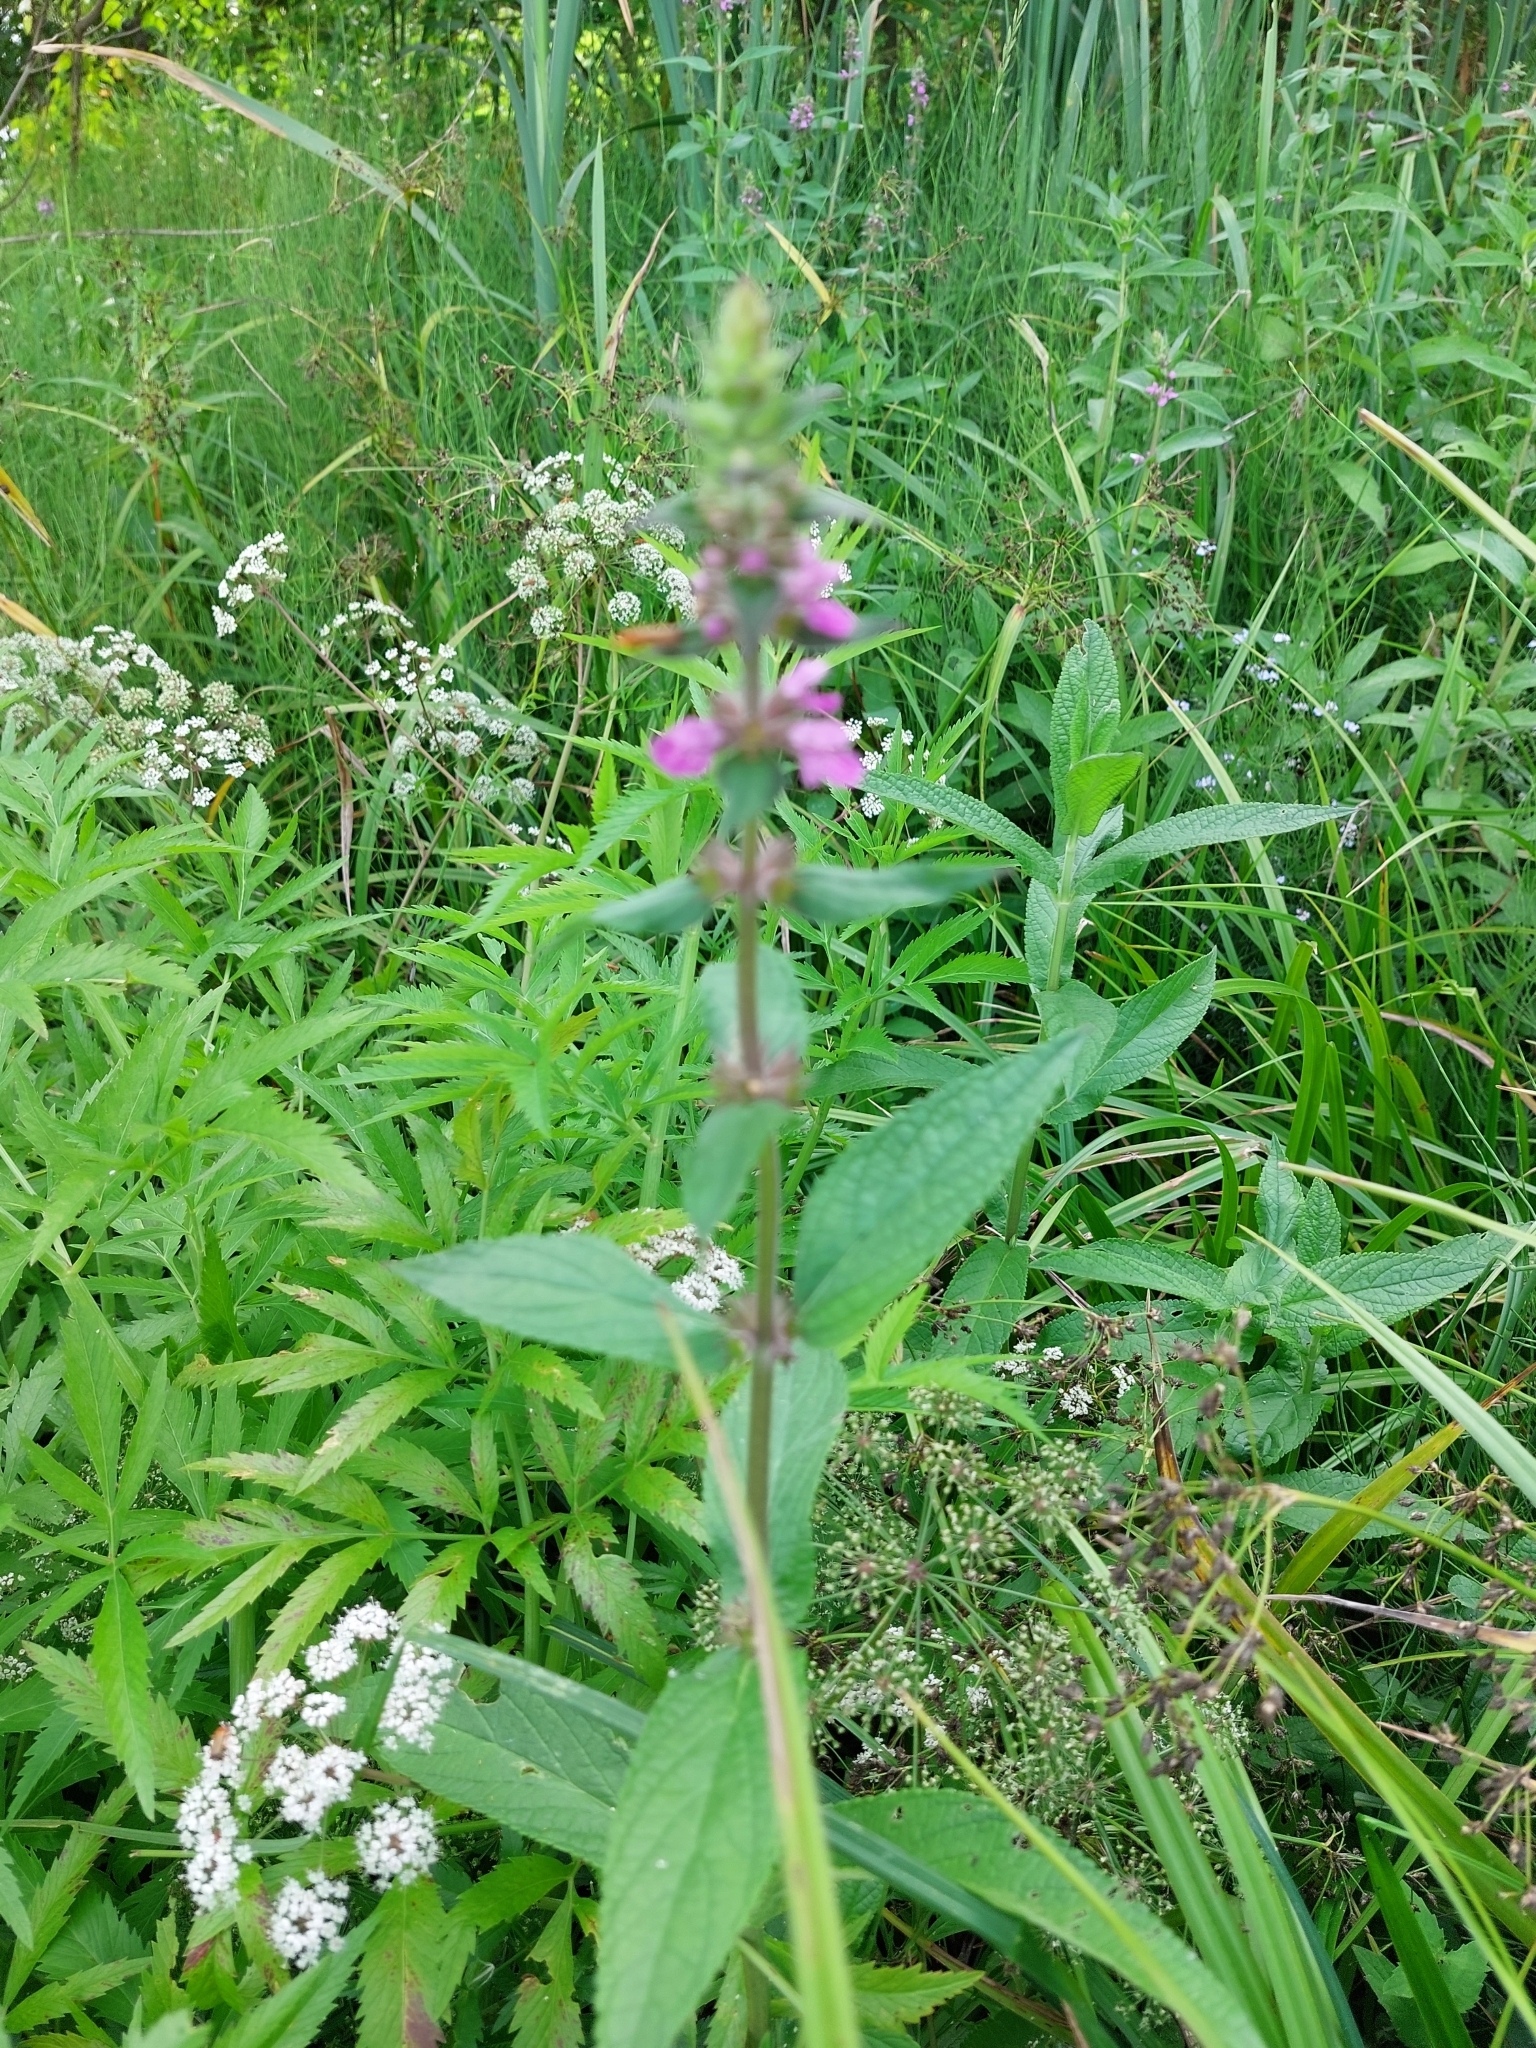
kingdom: Plantae
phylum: Tracheophyta
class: Magnoliopsida
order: Lamiales
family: Lamiaceae
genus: Stachys
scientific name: Stachys palustris
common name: Marsh woundwort
